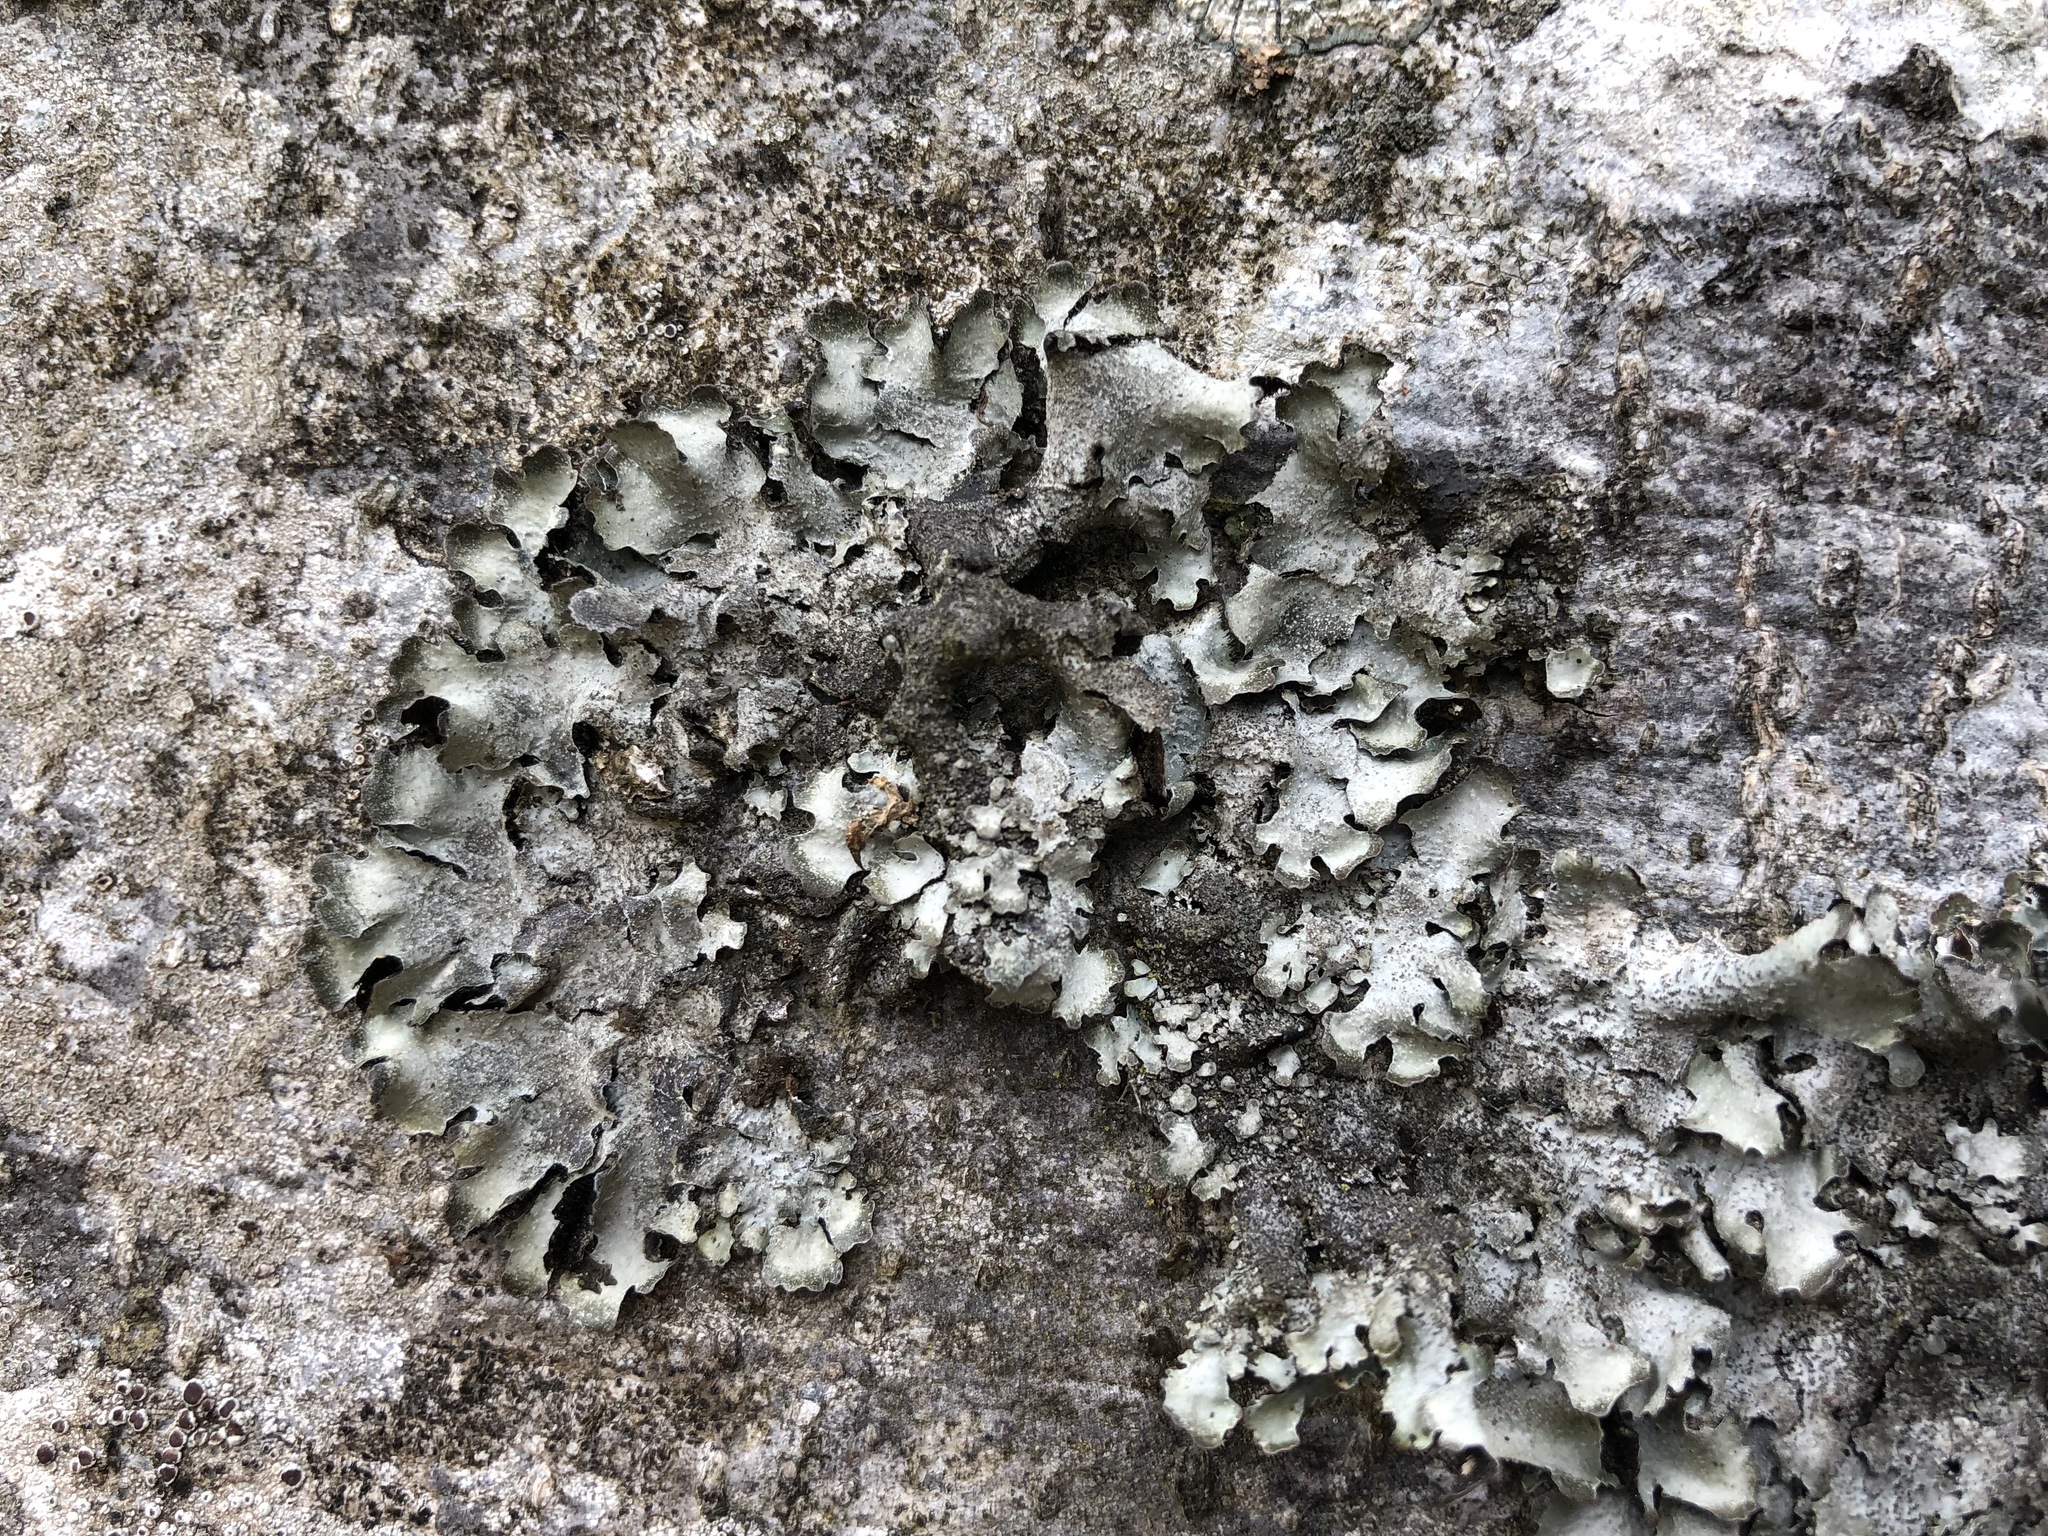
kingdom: Fungi
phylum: Ascomycota
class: Lecanoromycetes
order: Lecanorales
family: Parmeliaceae
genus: Parmelia
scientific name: Parmelia saxatilis
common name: Salted shield lichen
